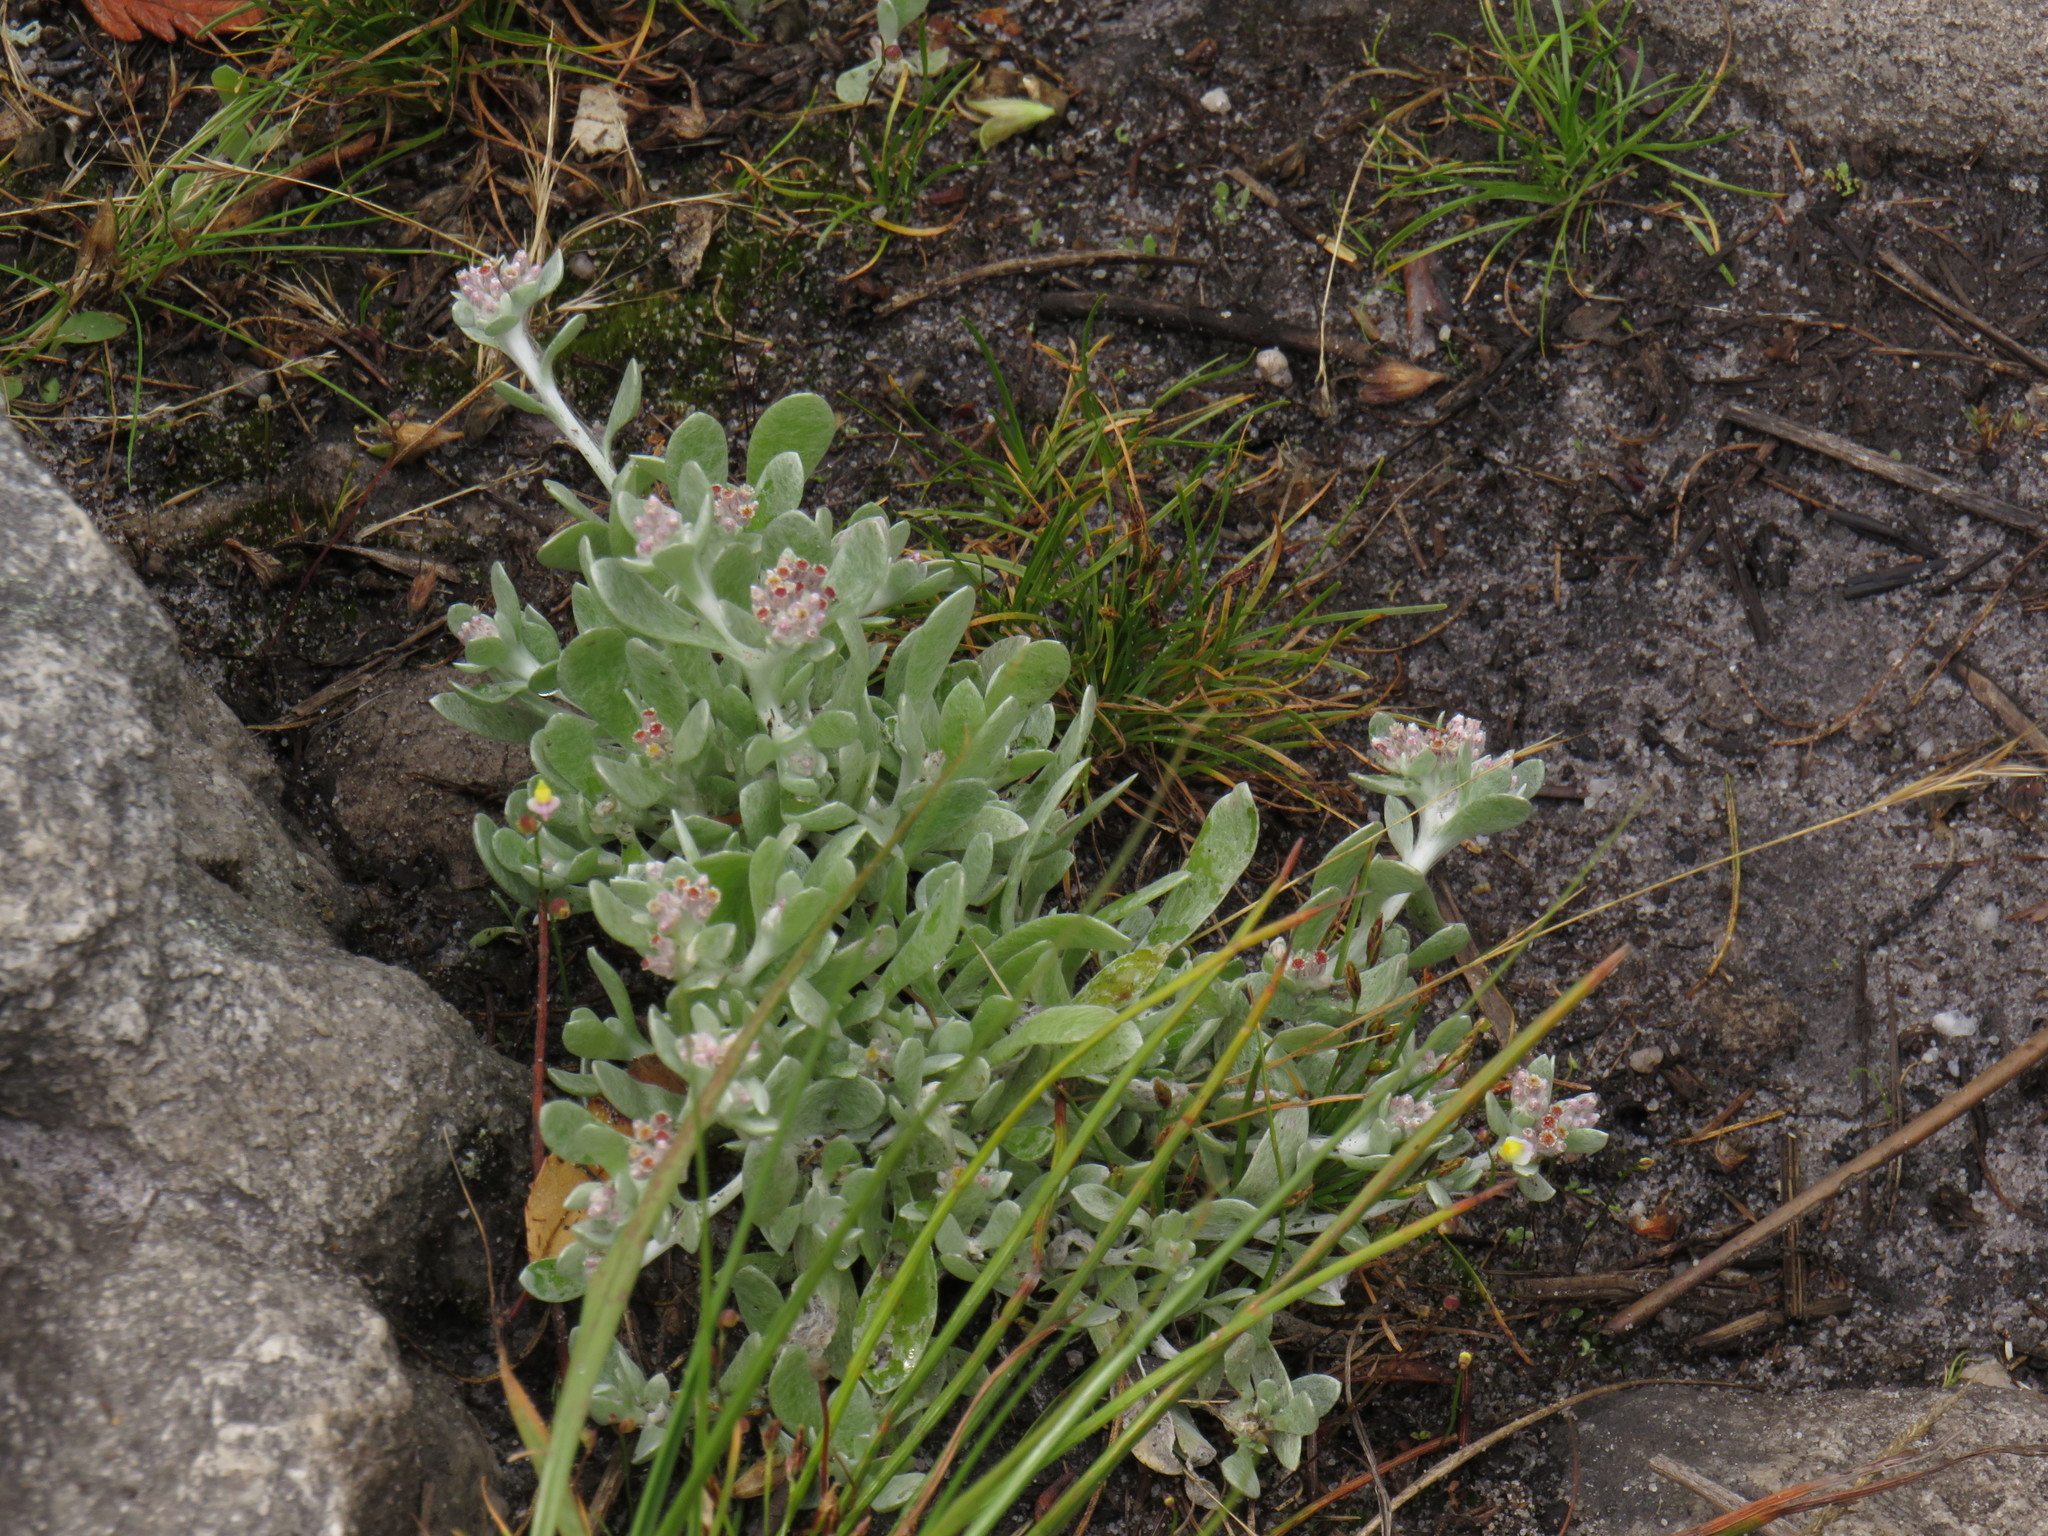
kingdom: Plantae
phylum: Tracheophyta
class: Magnoliopsida
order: Asterales
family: Asteraceae
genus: Vellereophyton
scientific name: Vellereophyton dealbatum
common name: White-cudweed
